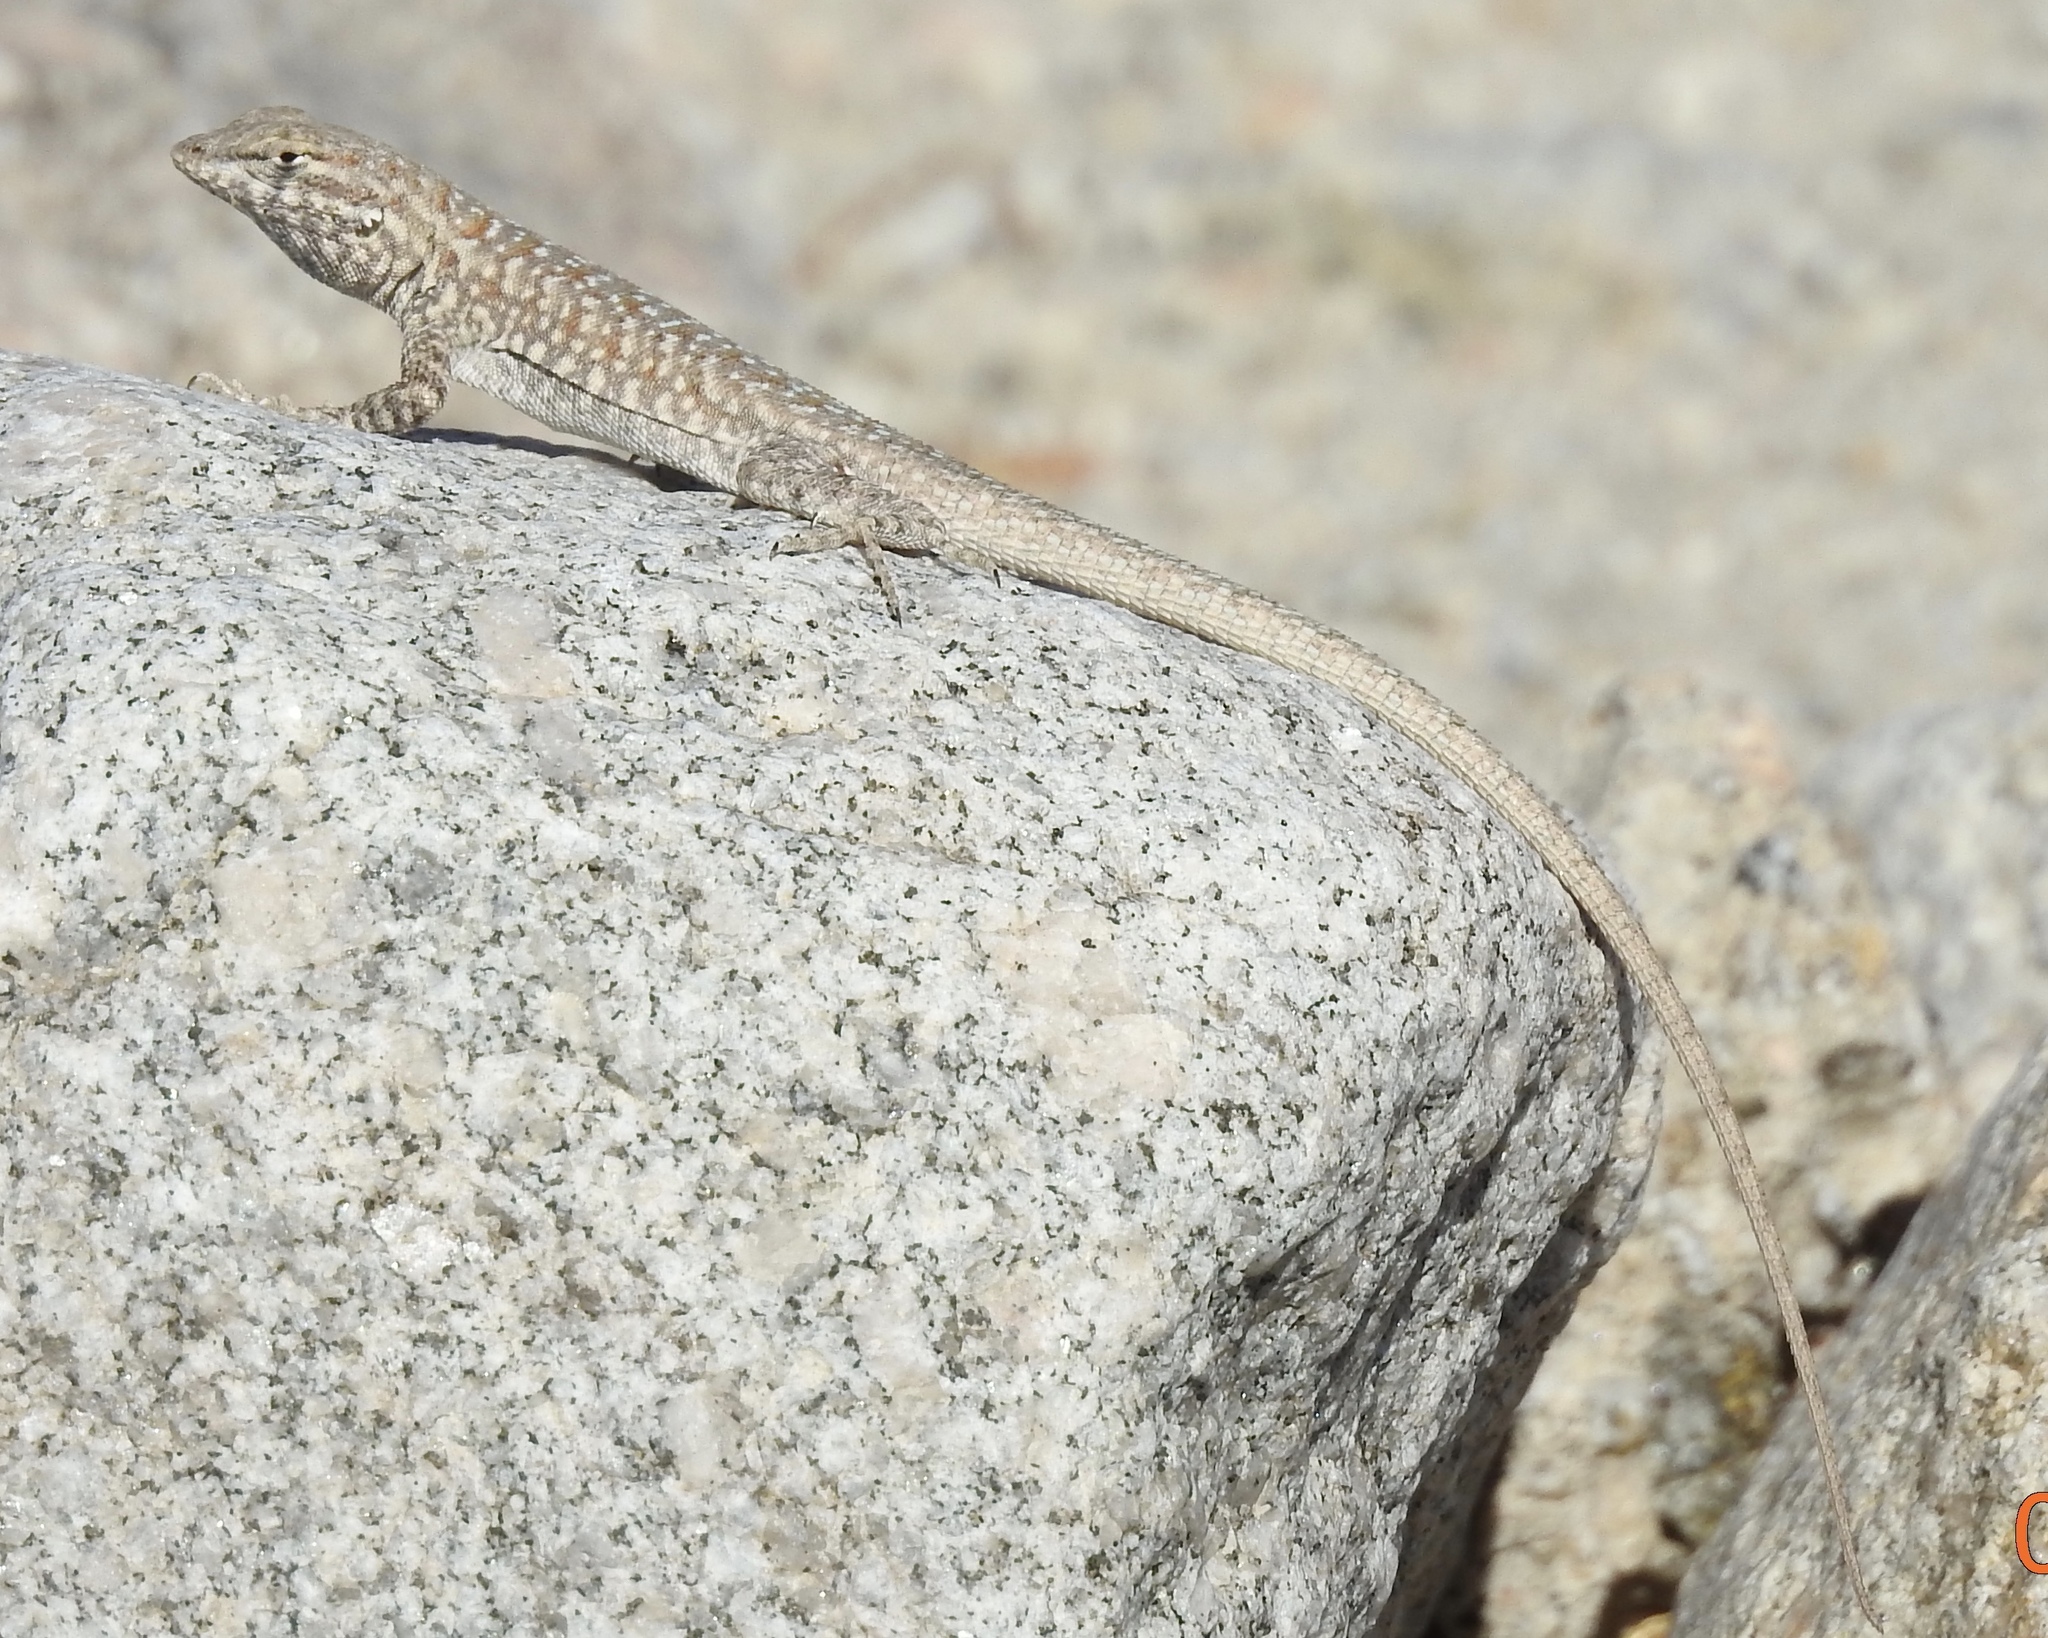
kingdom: Animalia
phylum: Chordata
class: Squamata
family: Phrynosomatidae
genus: Uta
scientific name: Uta stansburiana
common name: Side-blotched lizard
